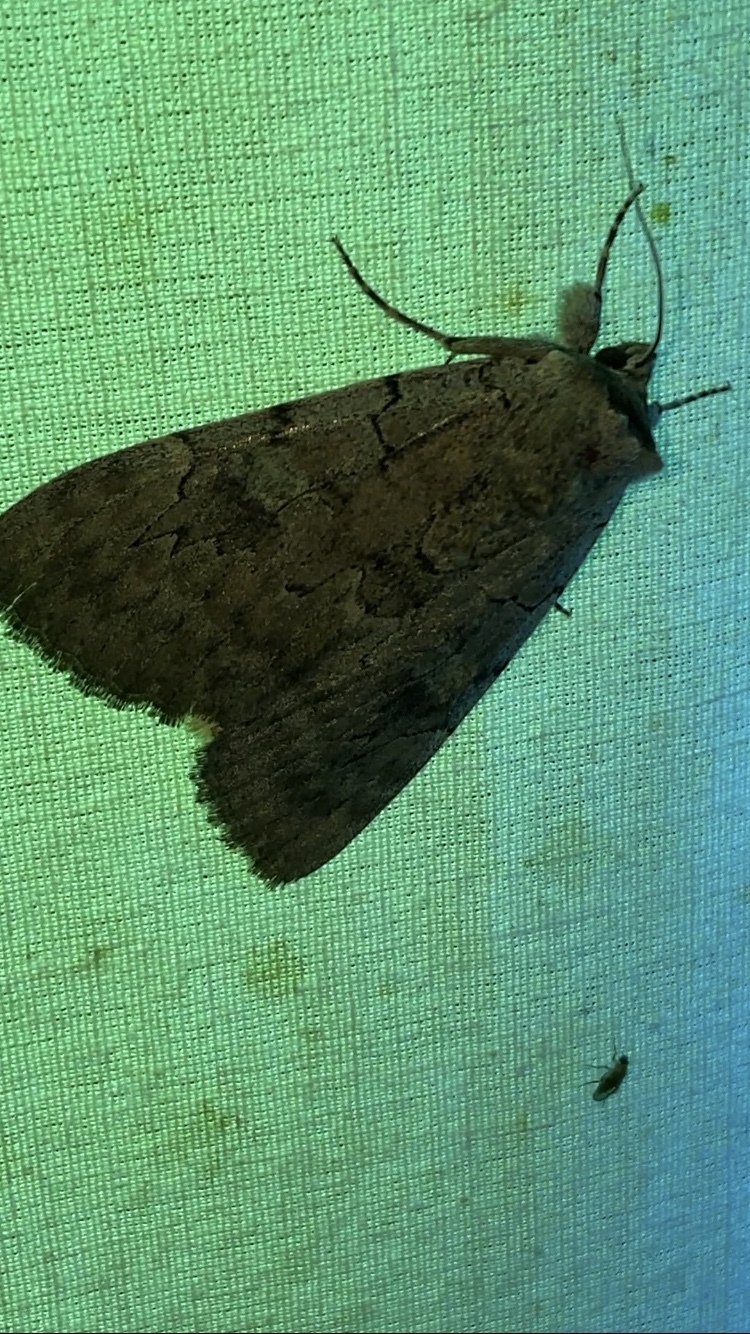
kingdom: Animalia
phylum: Arthropoda
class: Insecta
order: Lepidoptera
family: Erebidae
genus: Catocala
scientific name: Catocala concumbens
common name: Pink underwing
